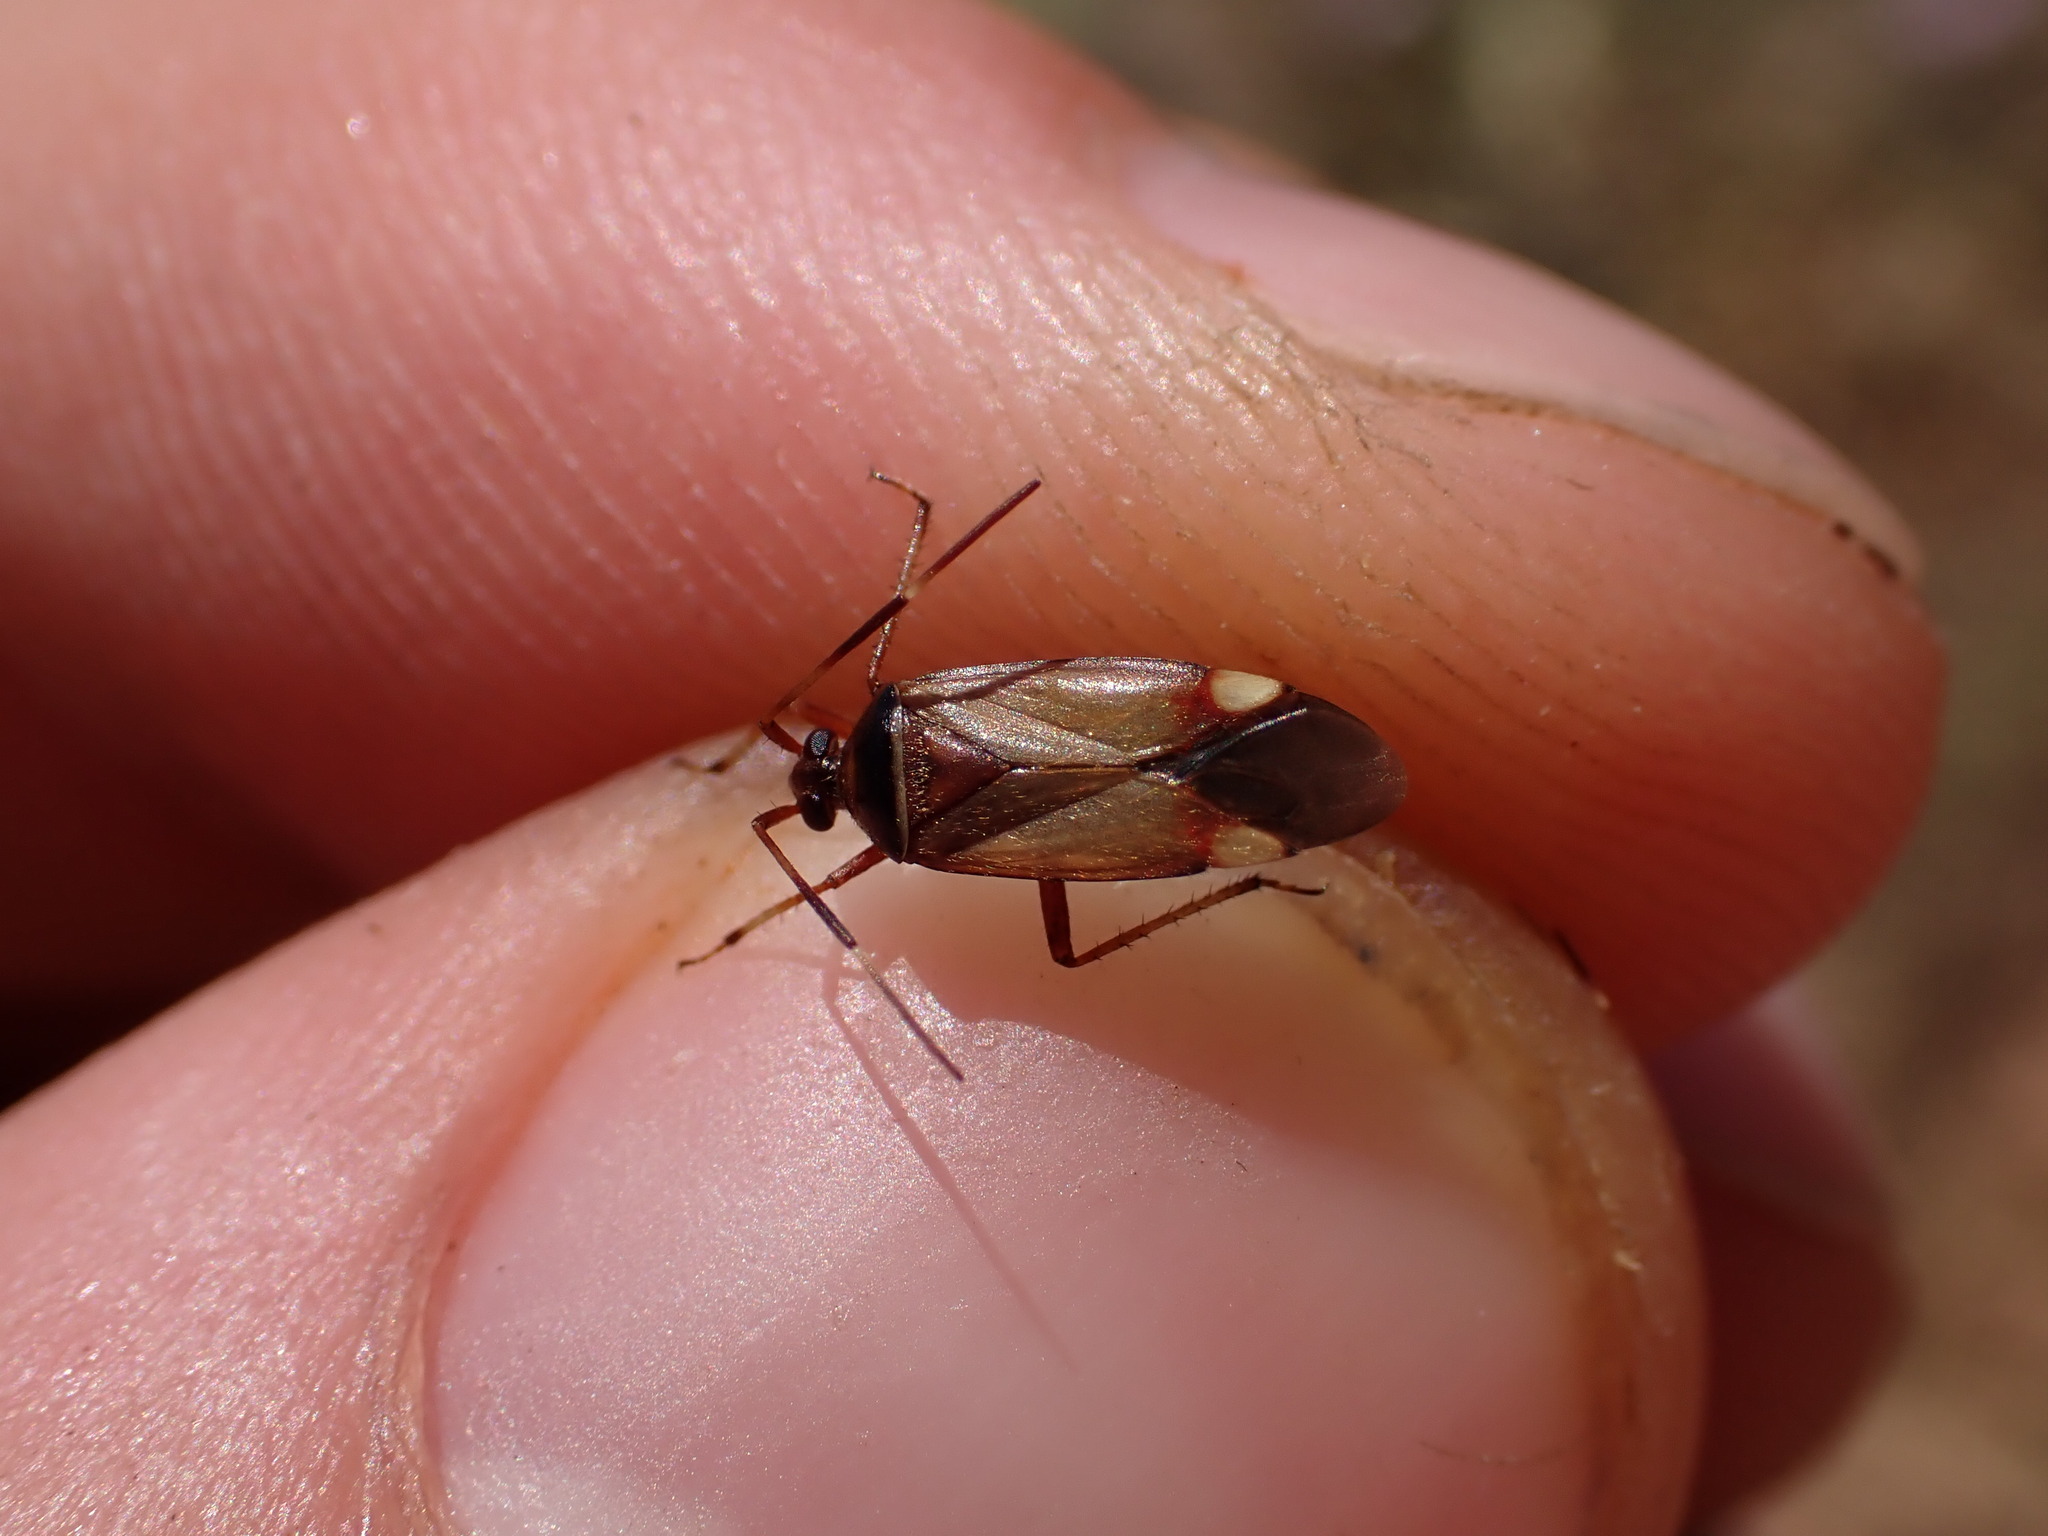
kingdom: Animalia
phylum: Arthropoda
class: Insecta
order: Hemiptera
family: Miridae
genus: Adelphocoris
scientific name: Adelphocoris vandalicus
